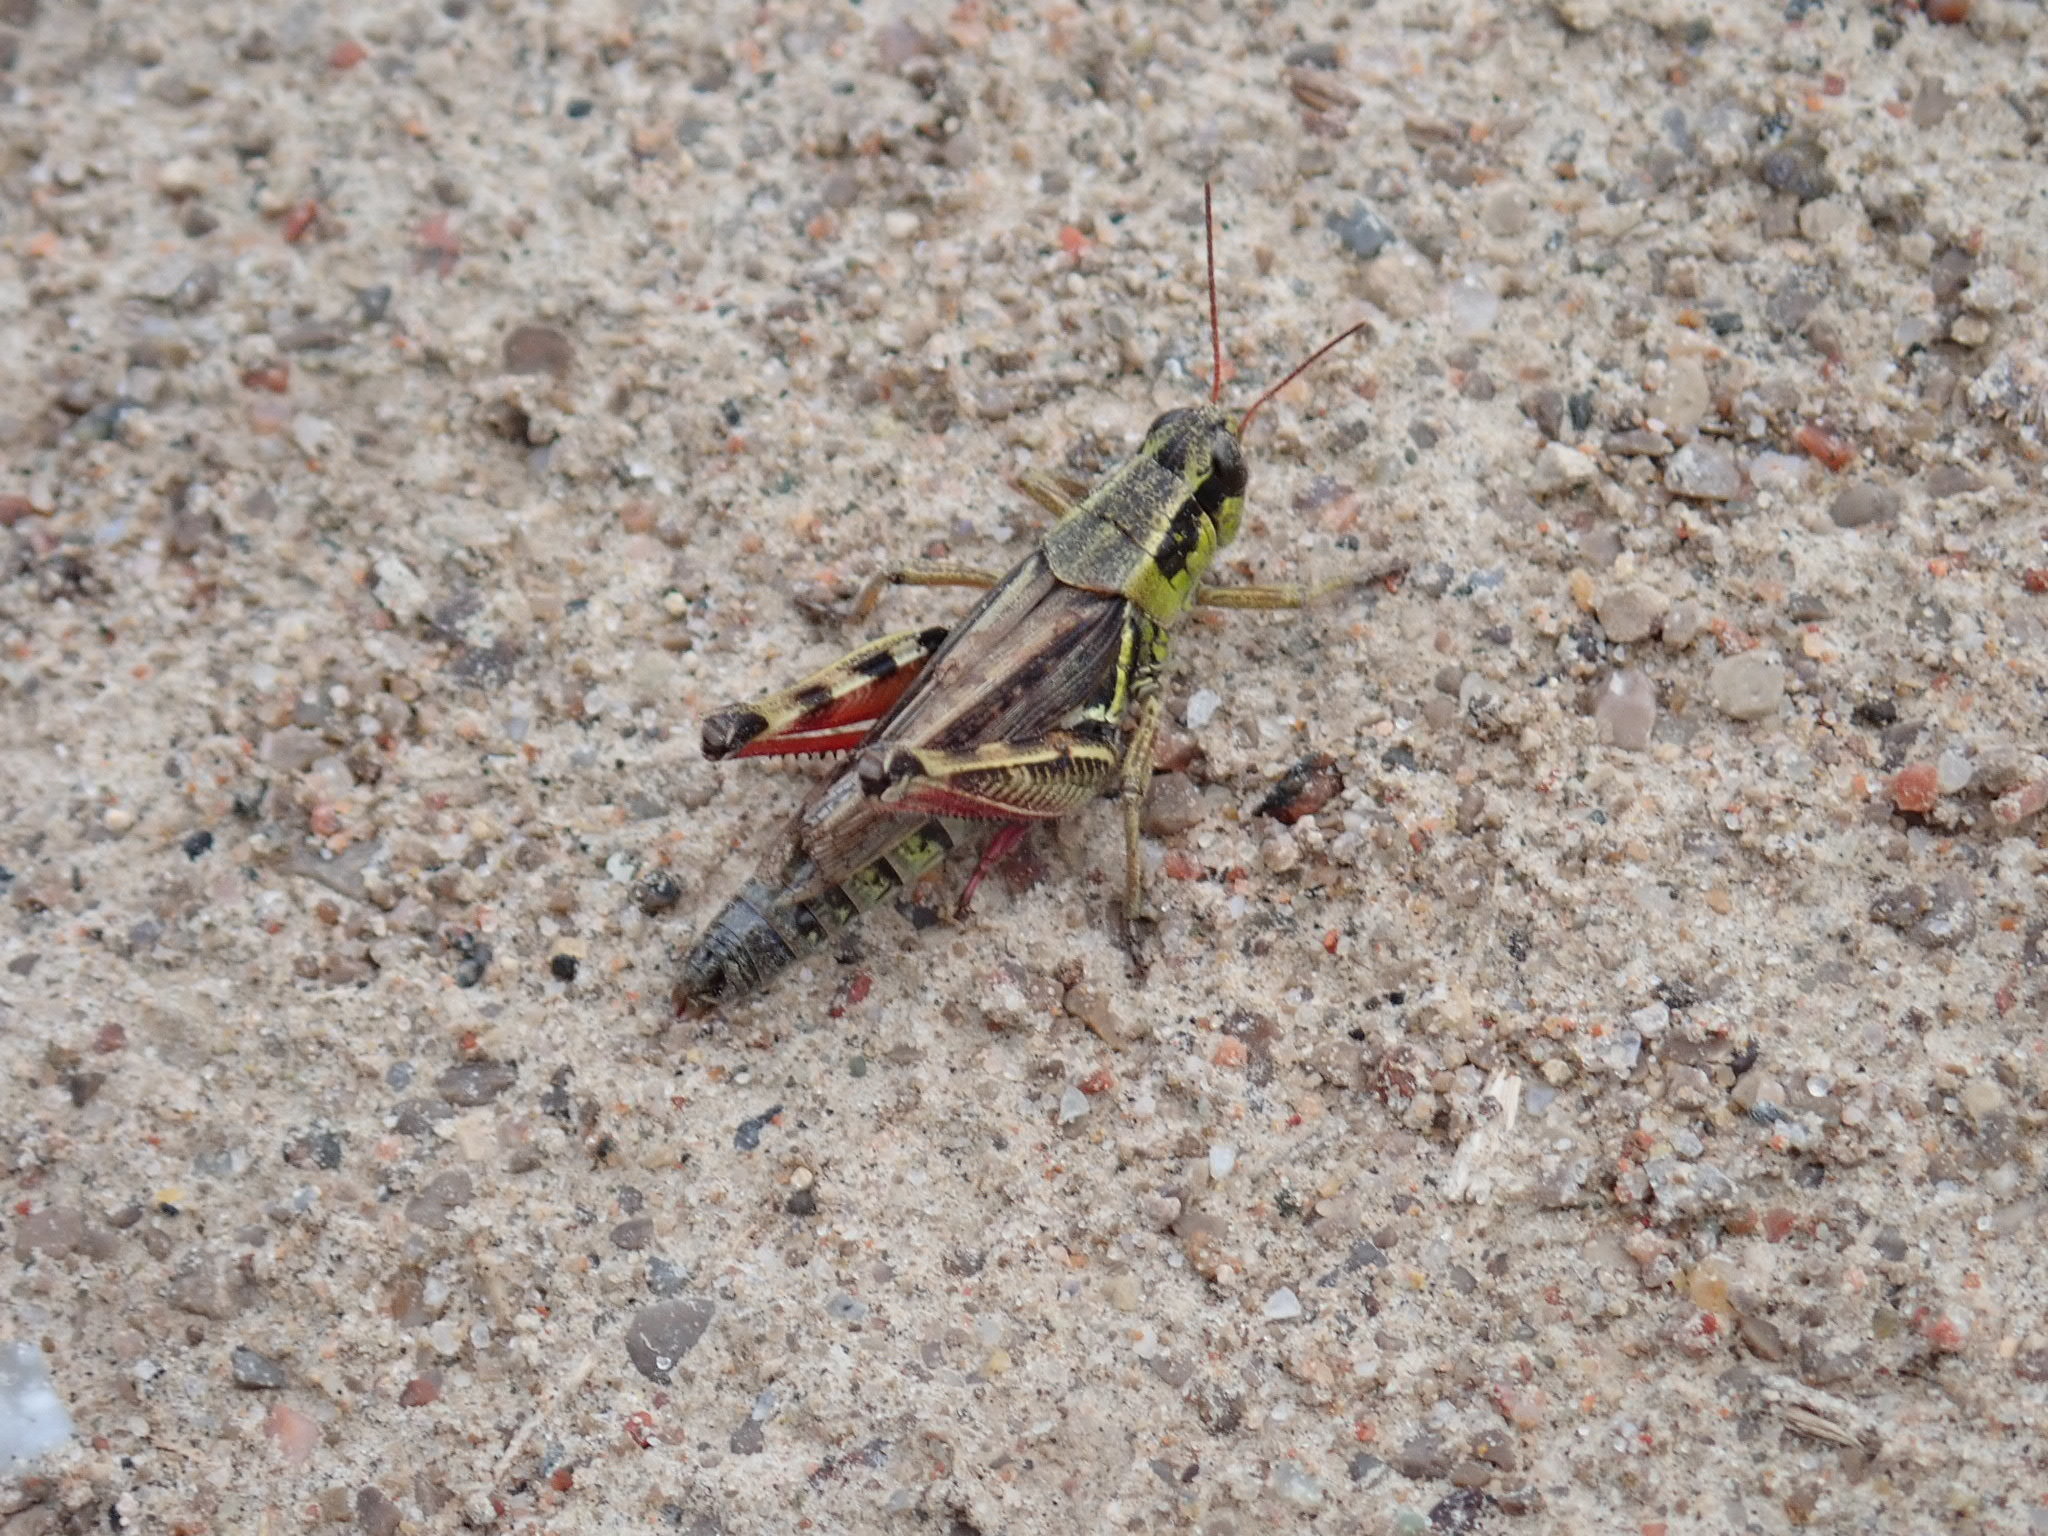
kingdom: Animalia
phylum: Arthropoda
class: Insecta
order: Orthoptera
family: Acrididae
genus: Melanoplus
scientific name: Melanoplus femurrubrum
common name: Red-legged grasshopper
